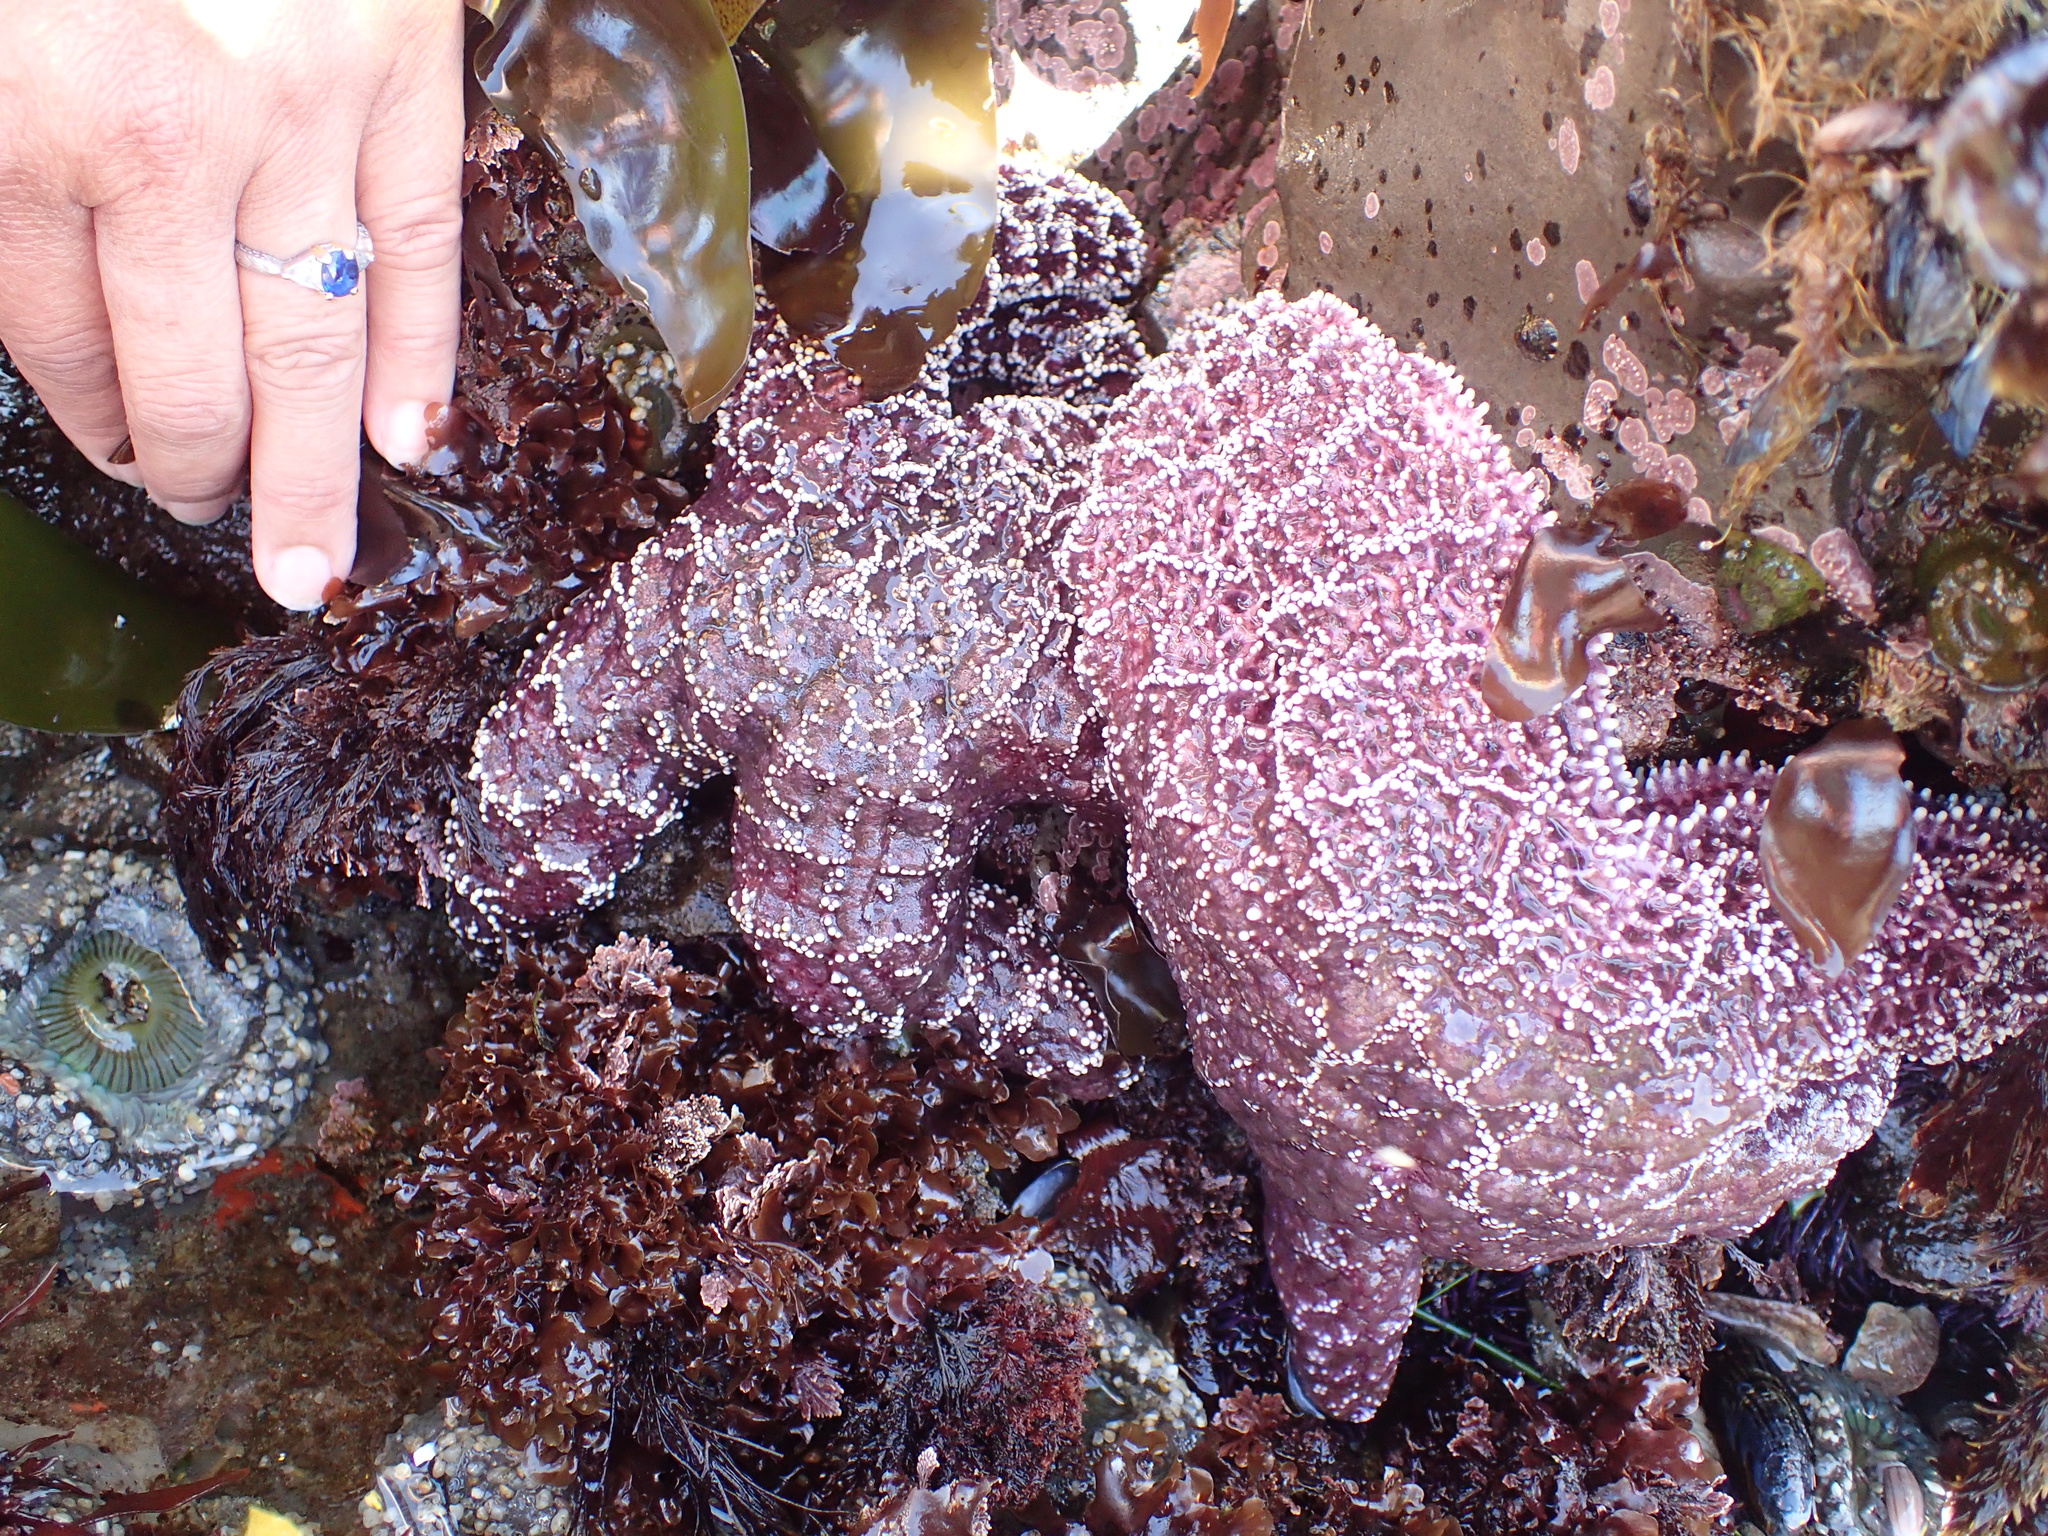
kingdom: Animalia
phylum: Echinodermata
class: Asteroidea
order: Forcipulatida
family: Asteriidae
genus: Pisaster
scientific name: Pisaster ochraceus
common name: Ochre stars
